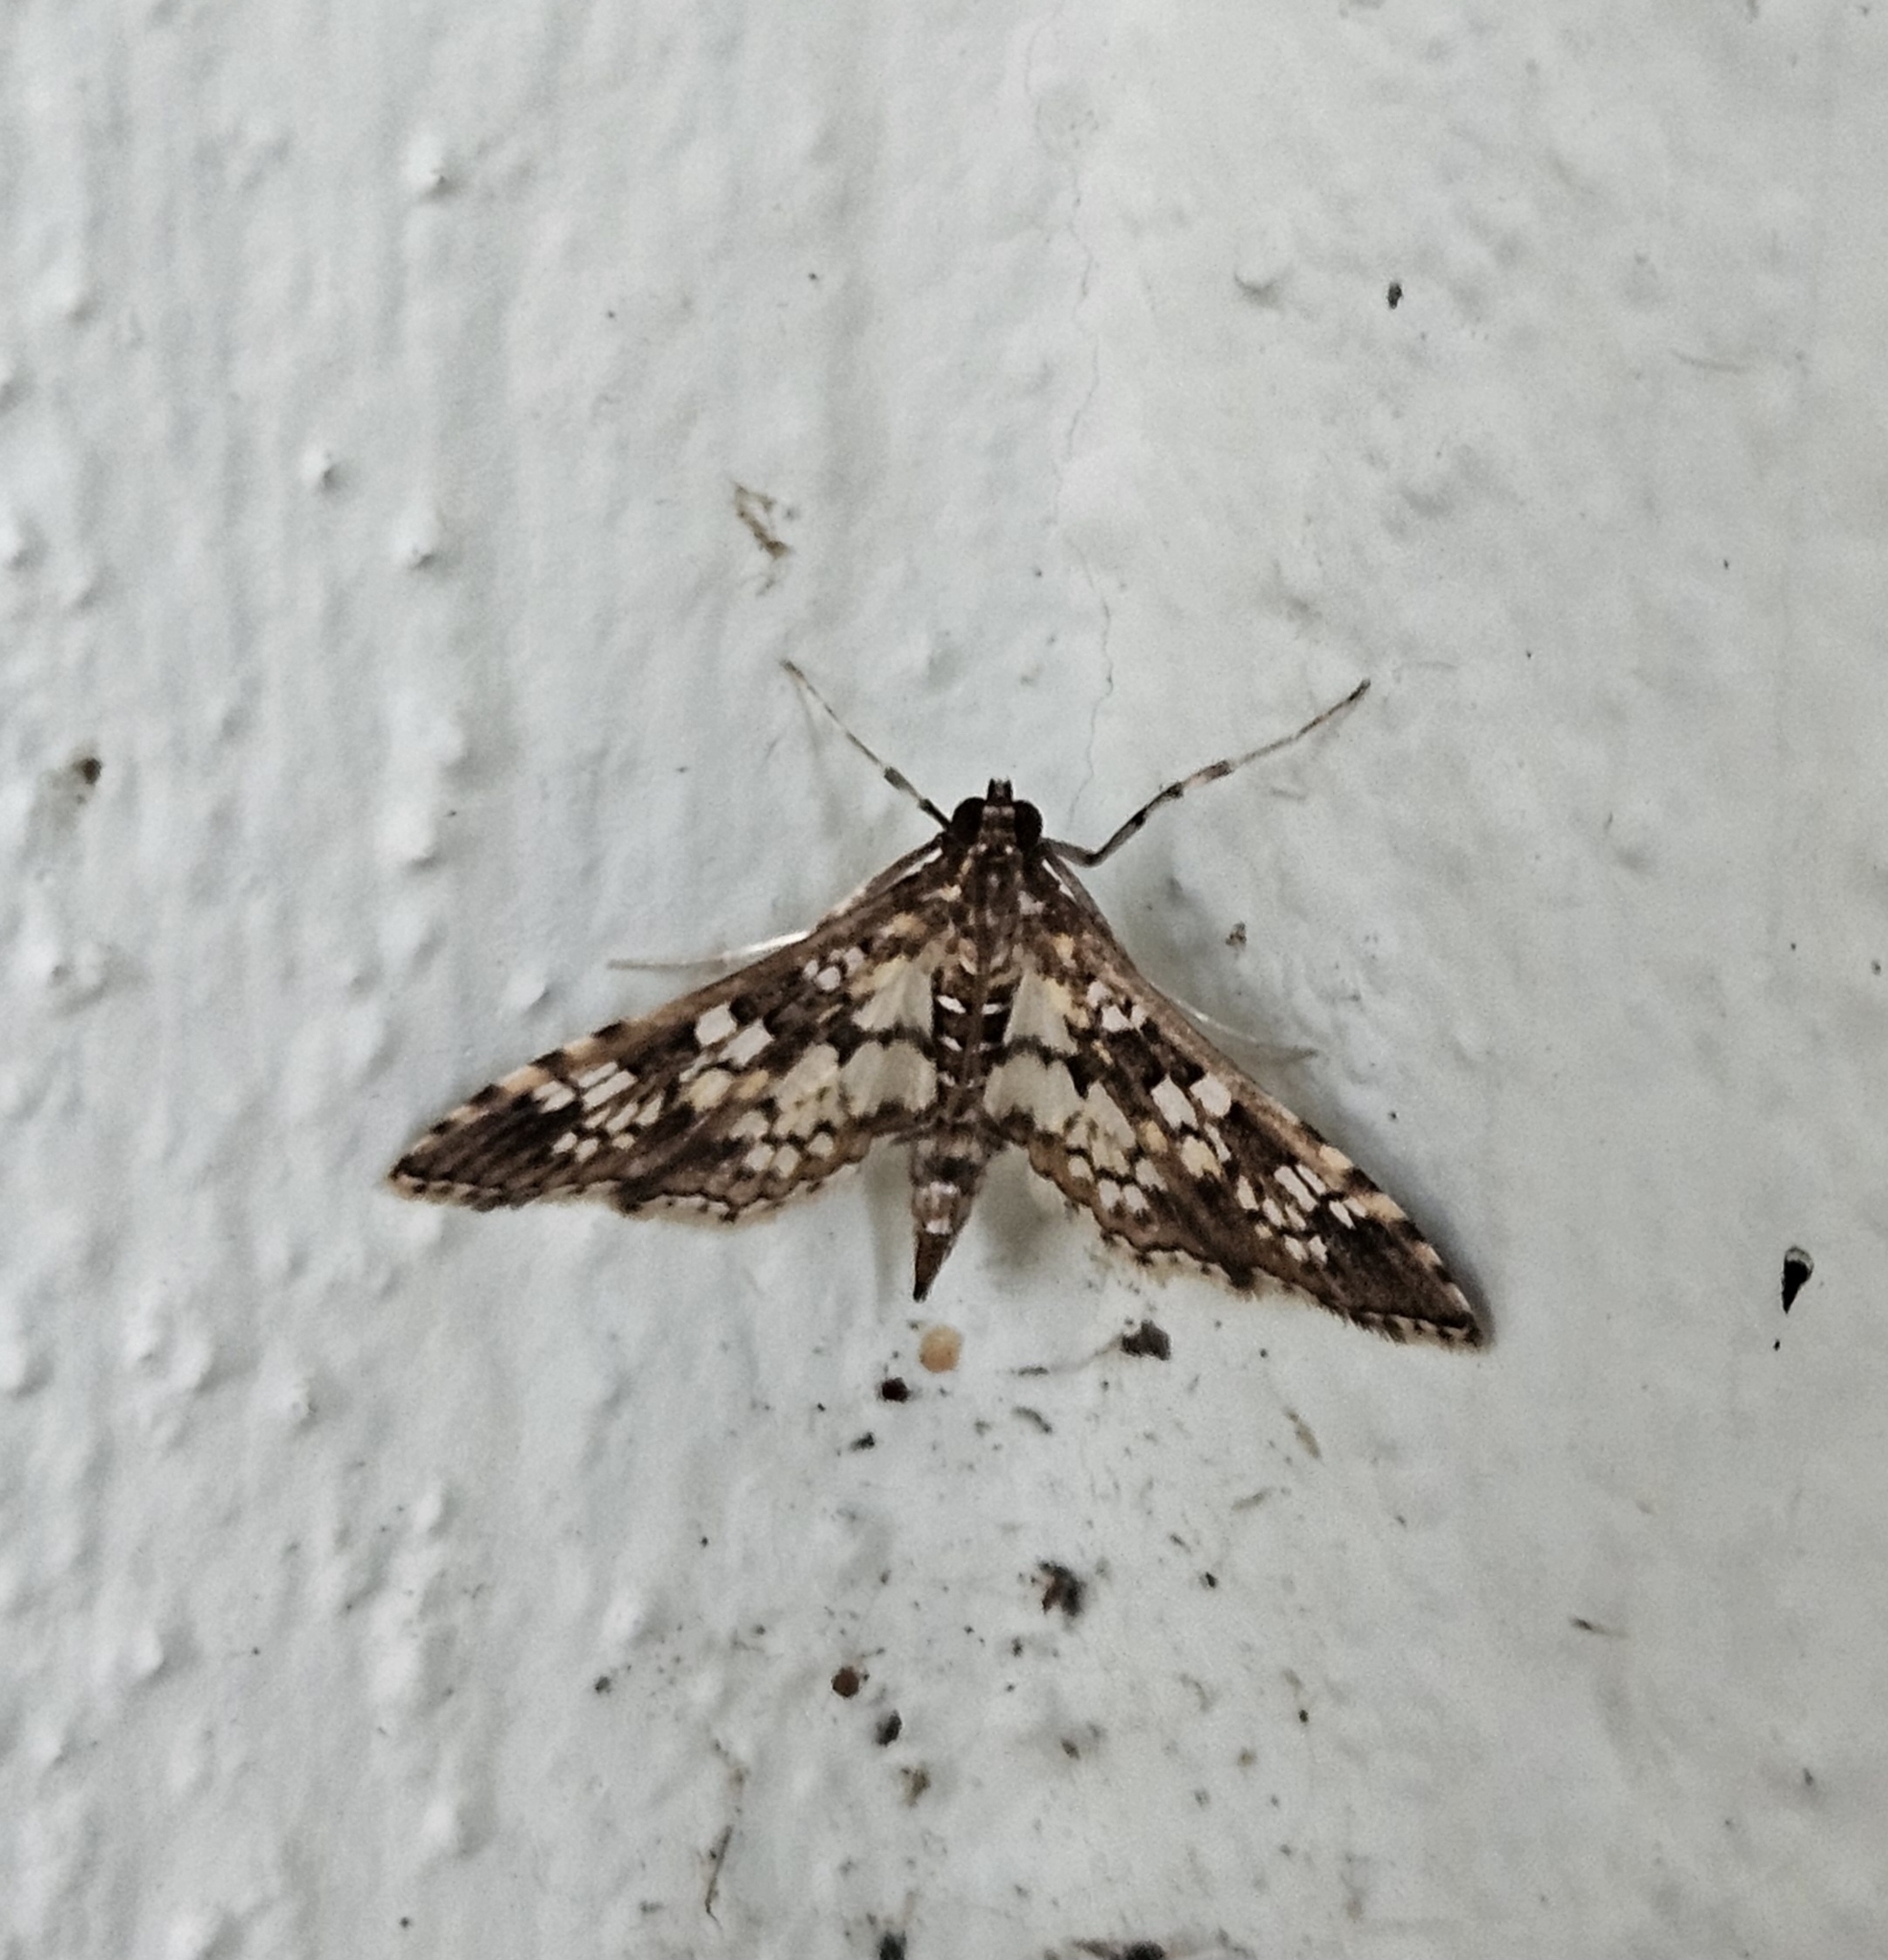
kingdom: Animalia
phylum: Arthropoda
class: Insecta
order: Lepidoptera
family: Crambidae
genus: Samea
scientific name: Samea ecclesialis
